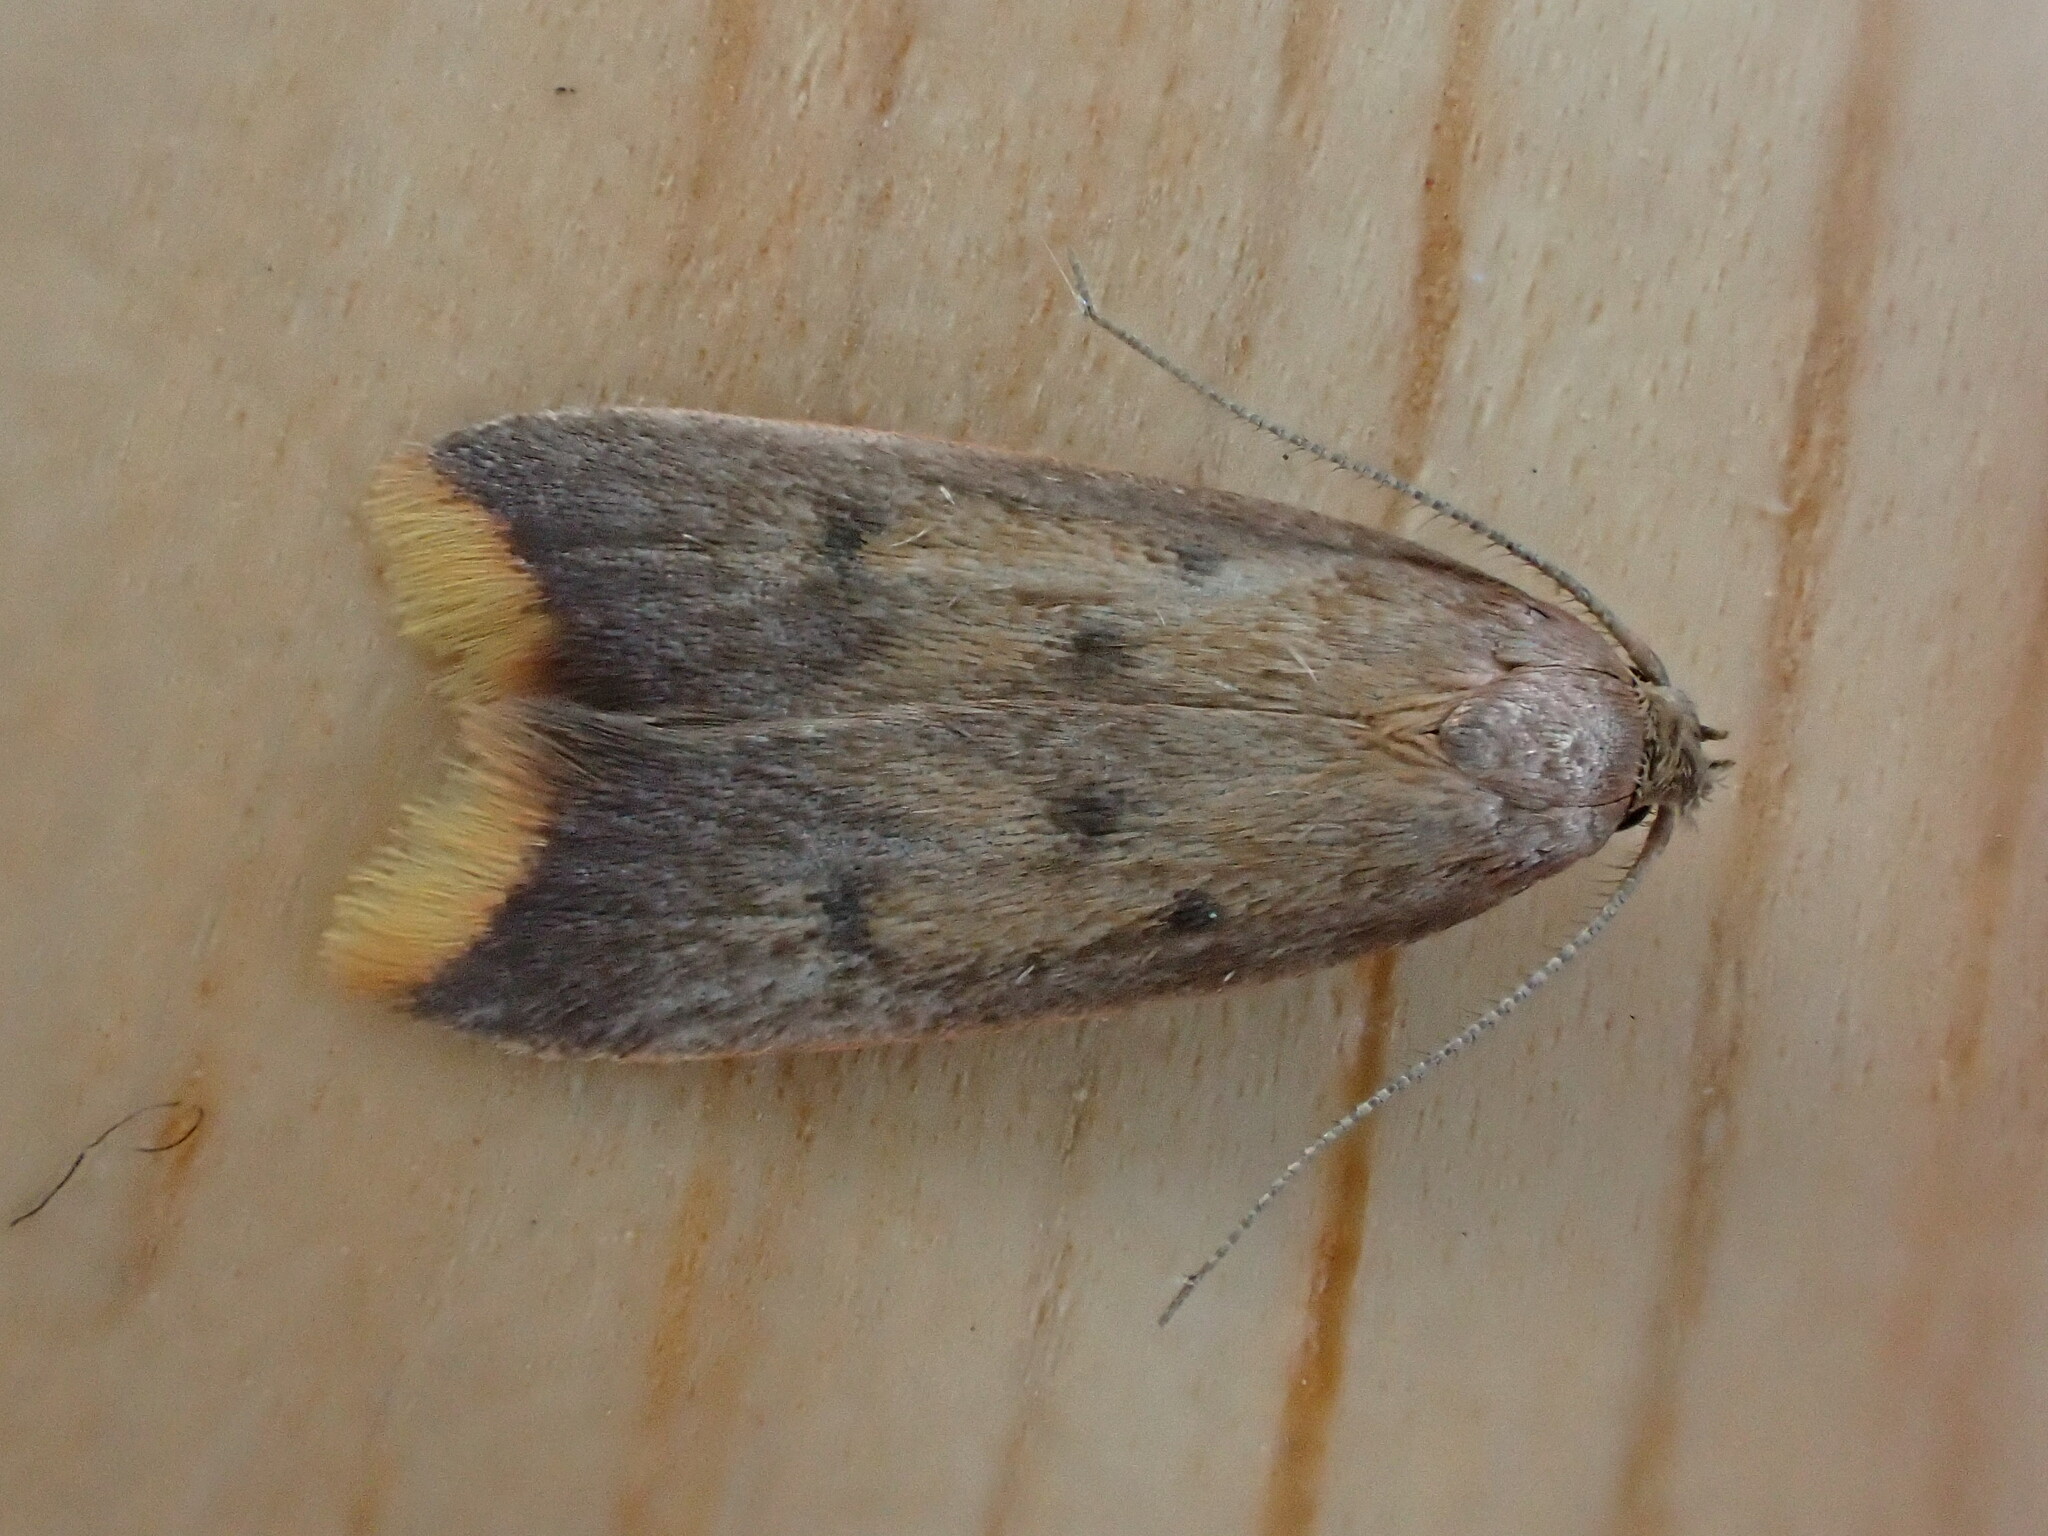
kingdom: Animalia
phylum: Arthropoda
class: Insecta
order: Lepidoptera
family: Oecophoridae
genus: Tachystola
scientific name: Tachystola acroxantha
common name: Ruddy streak
